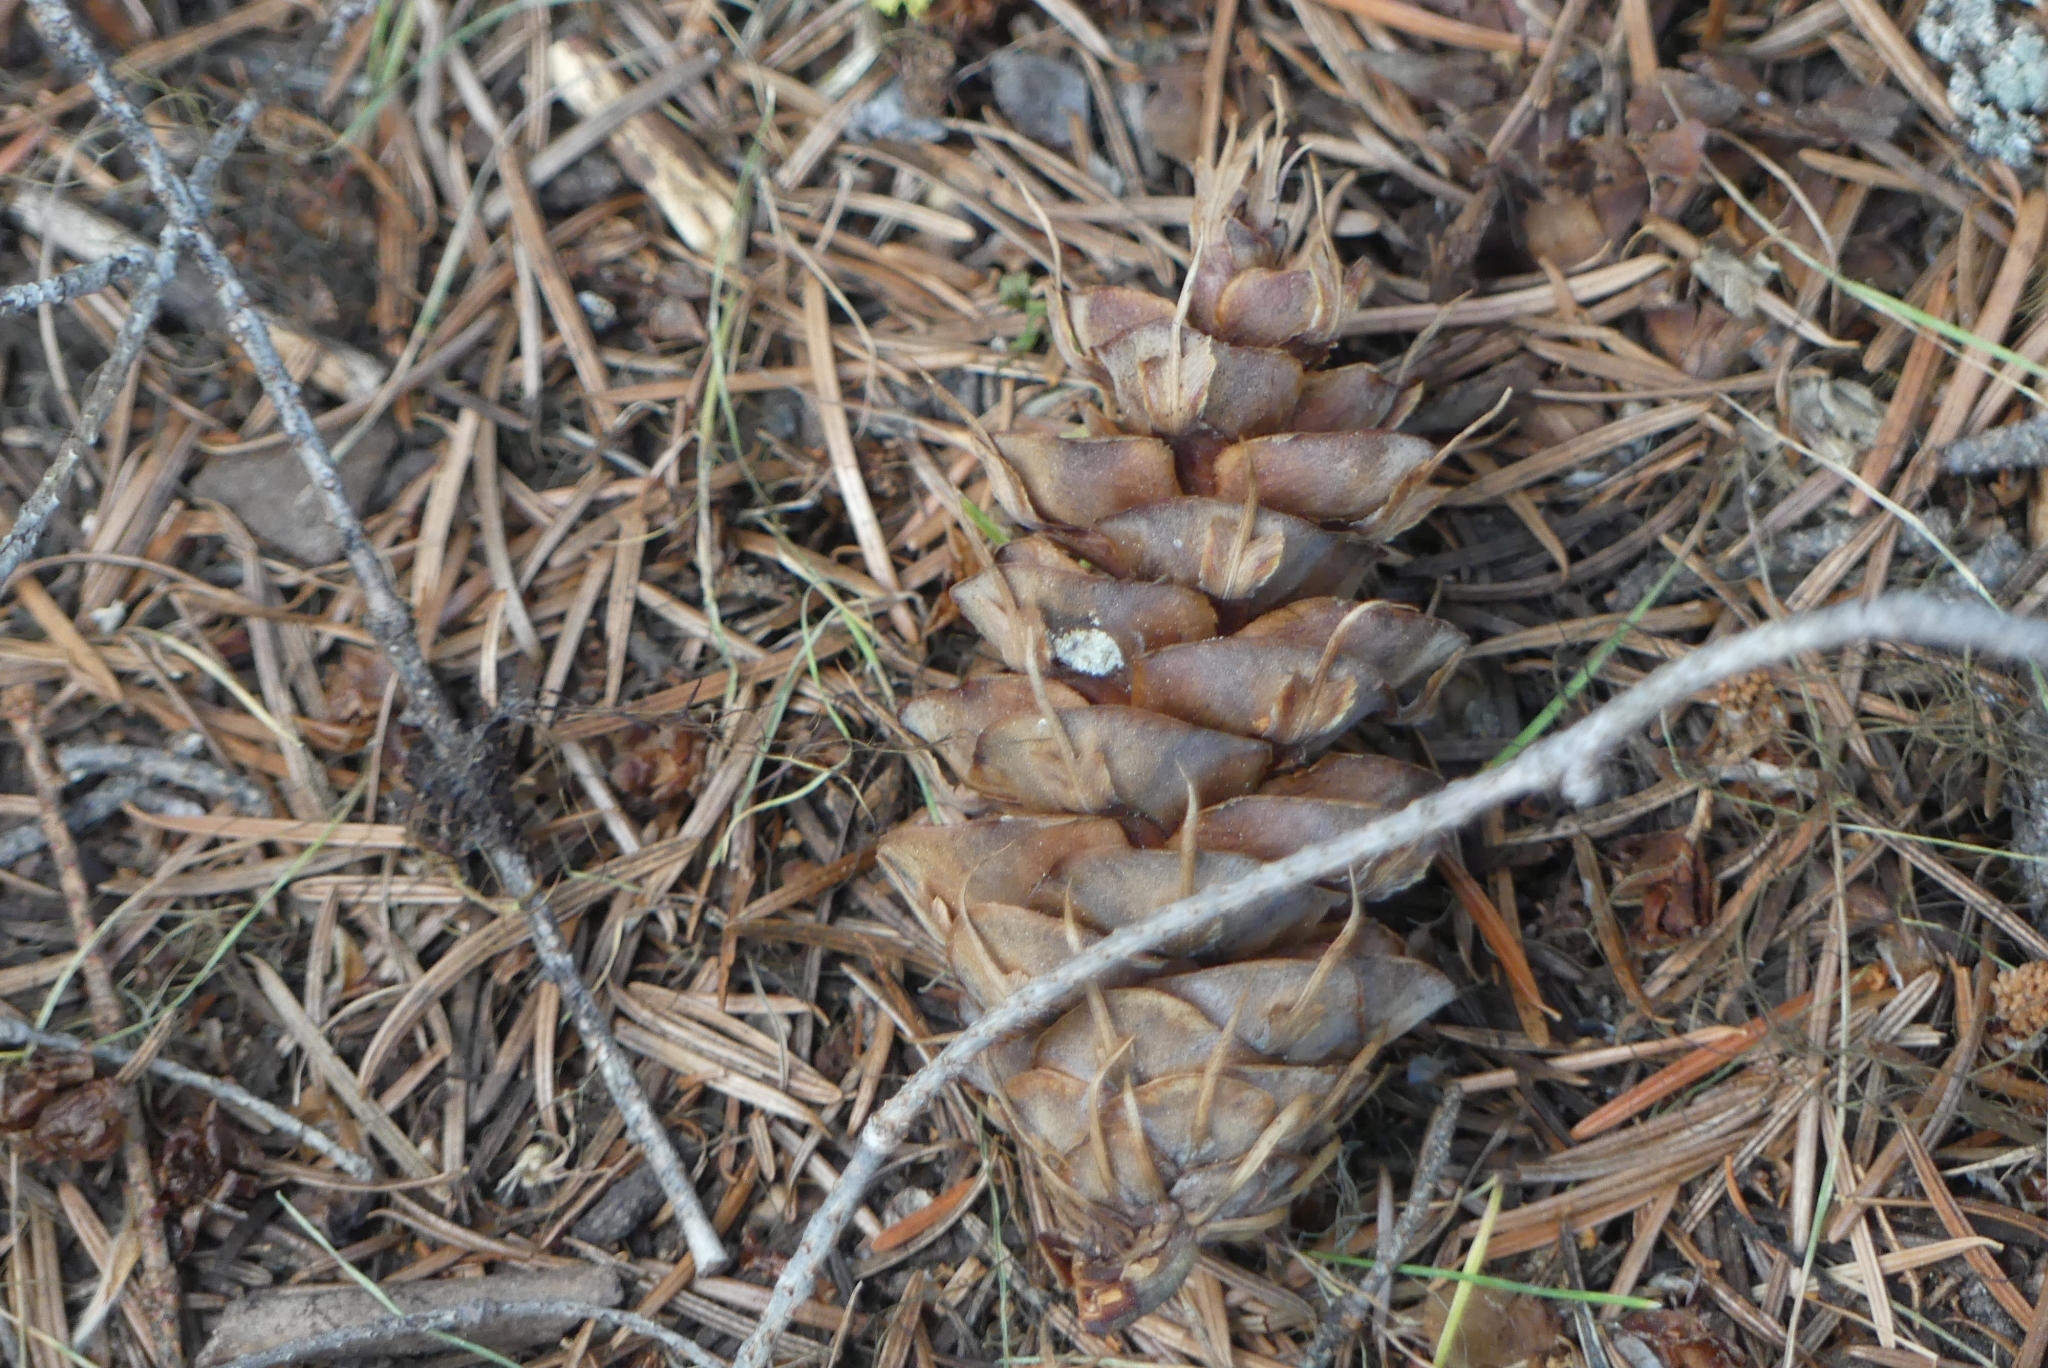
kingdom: Plantae
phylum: Tracheophyta
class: Pinopsida
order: Pinales
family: Pinaceae
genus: Pseudotsuga
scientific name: Pseudotsuga menziesii
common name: Douglas fir
